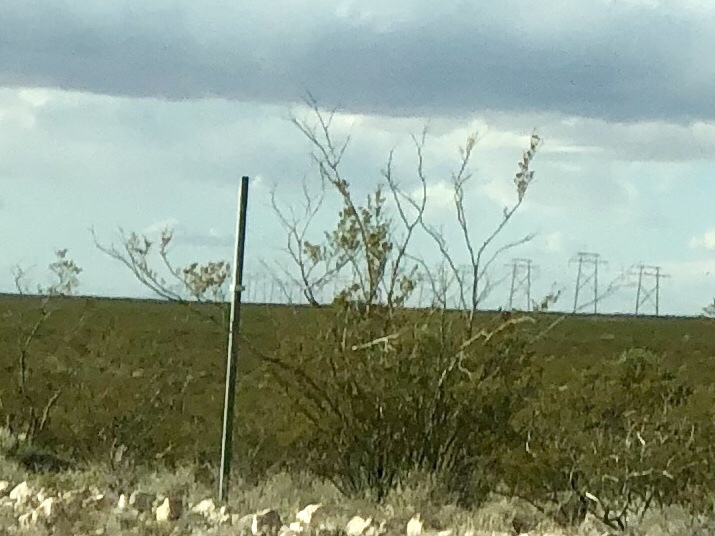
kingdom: Plantae
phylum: Tracheophyta
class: Magnoliopsida
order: Zygophyllales
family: Zygophyllaceae
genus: Larrea
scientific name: Larrea tridentata
